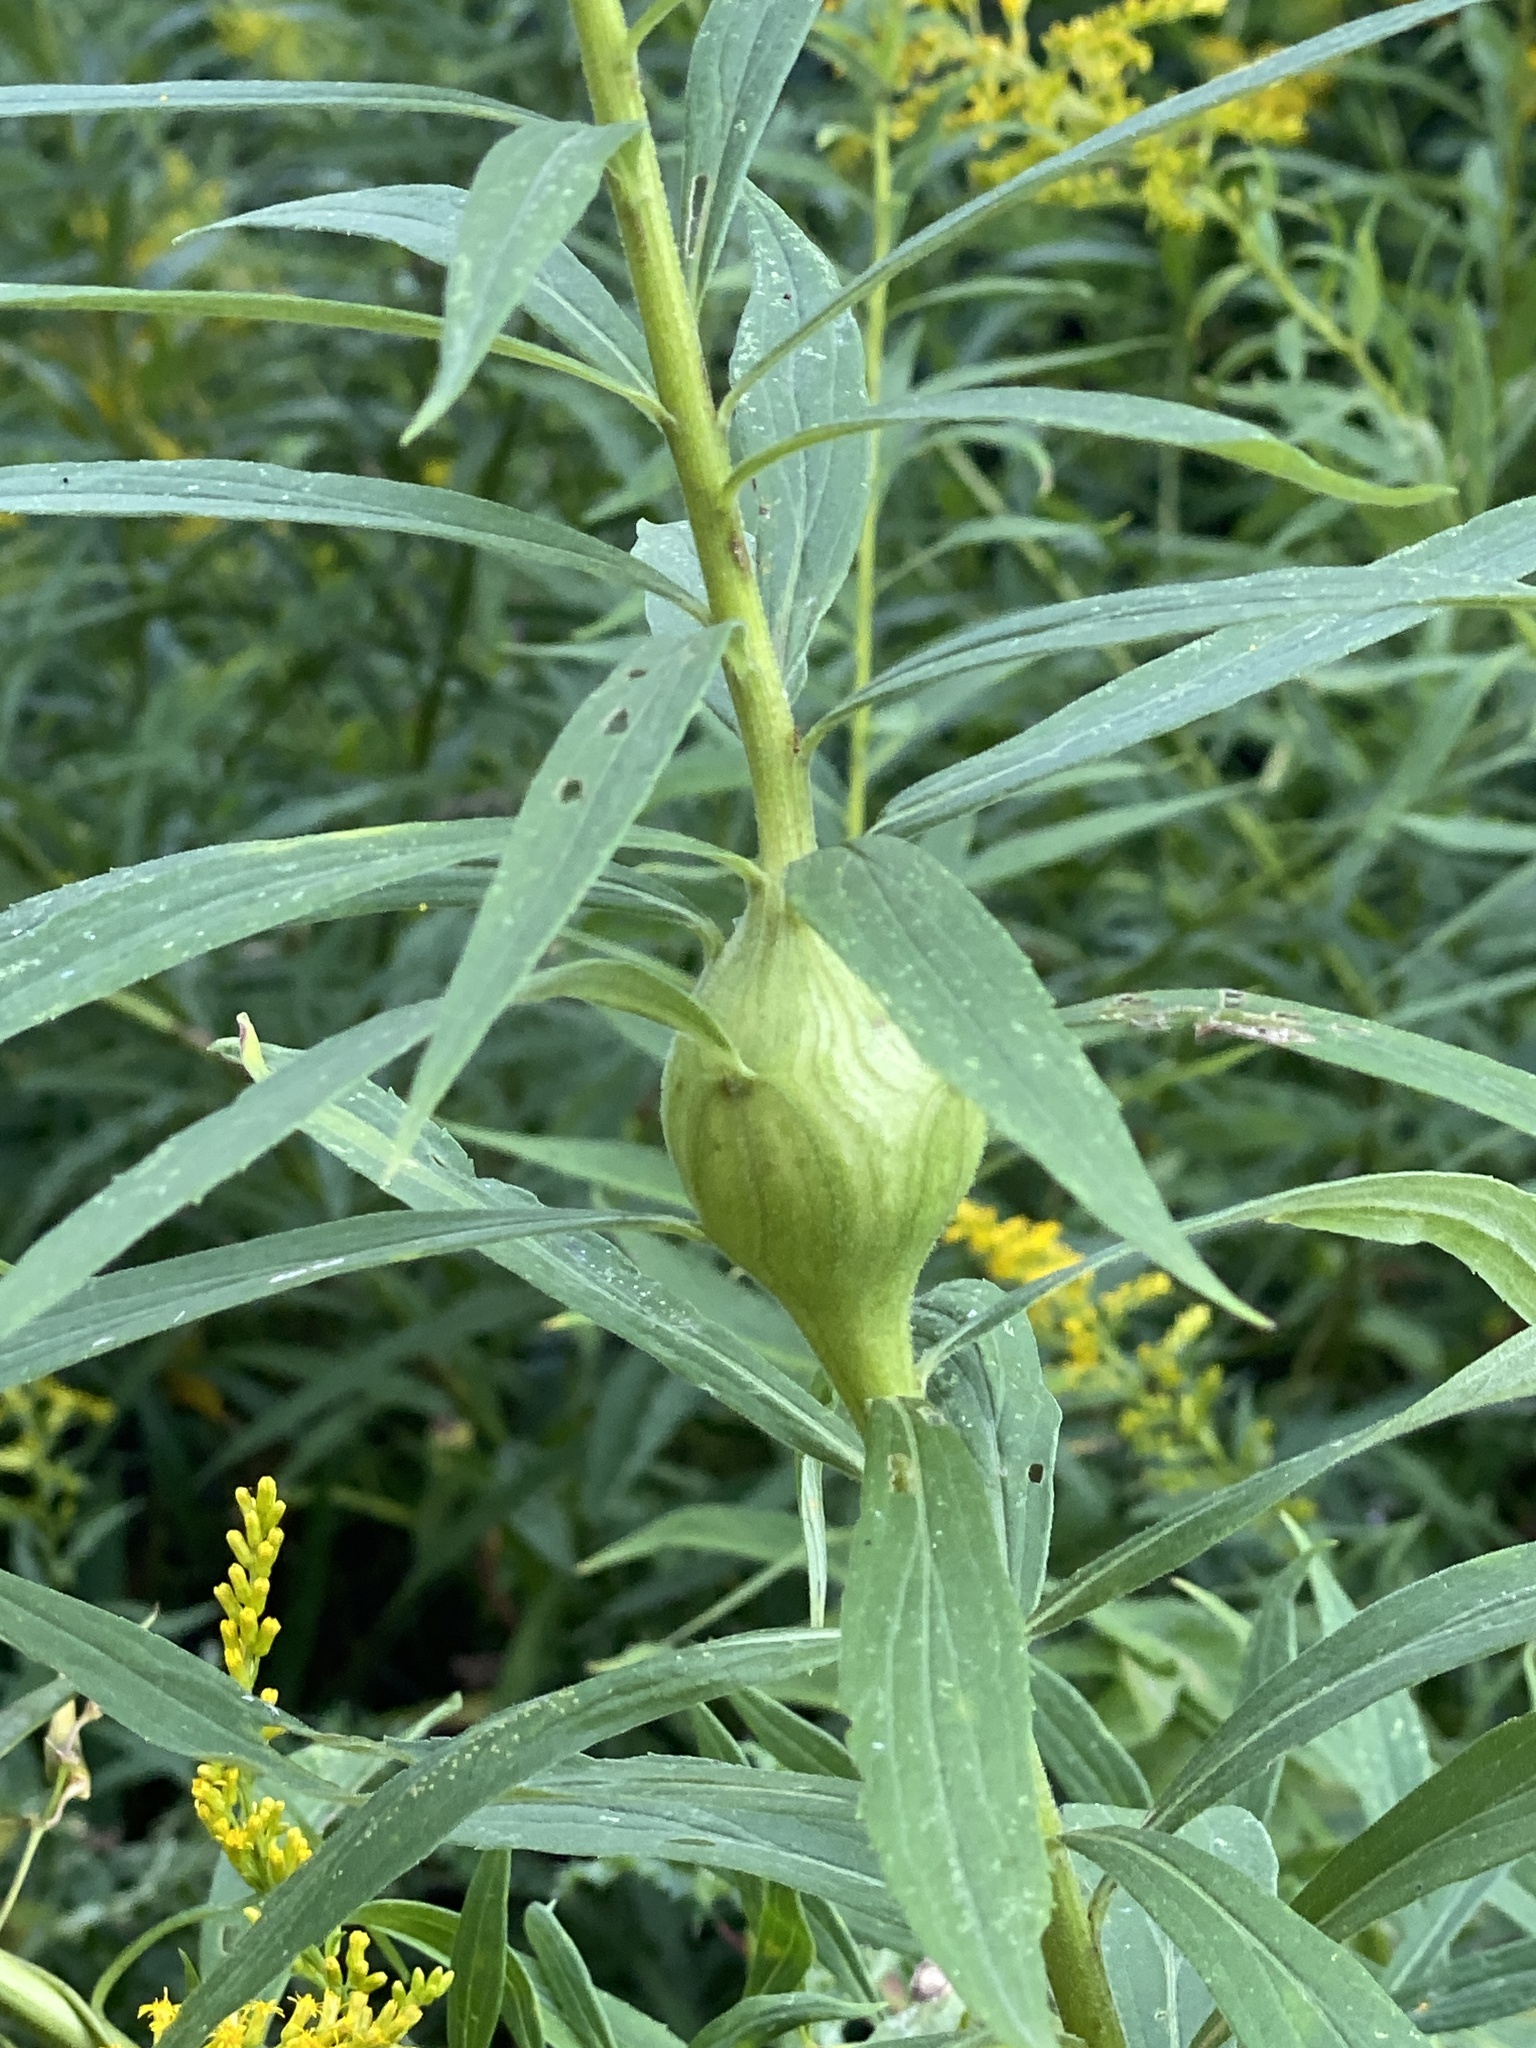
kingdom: Animalia
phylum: Arthropoda
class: Insecta
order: Diptera
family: Tephritidae
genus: Eurosta
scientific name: Eurosta solidaginis
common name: Goldenrod gall fly
